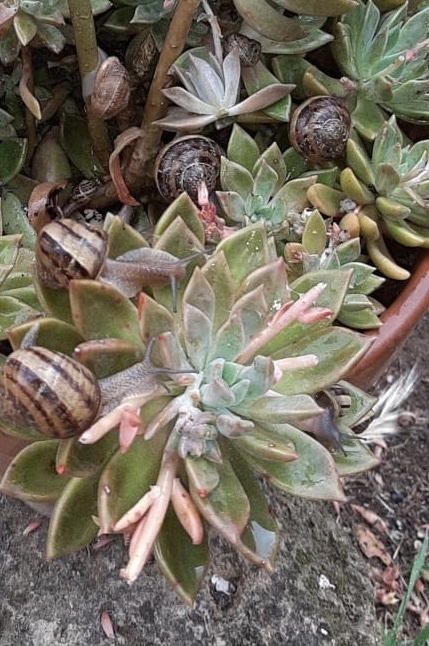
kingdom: Animalia
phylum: Mollusca
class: Gastropoda
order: Stylommatophora
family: Helicidae
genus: Cornu
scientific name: Cornu aspersum
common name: Brown garden snail
